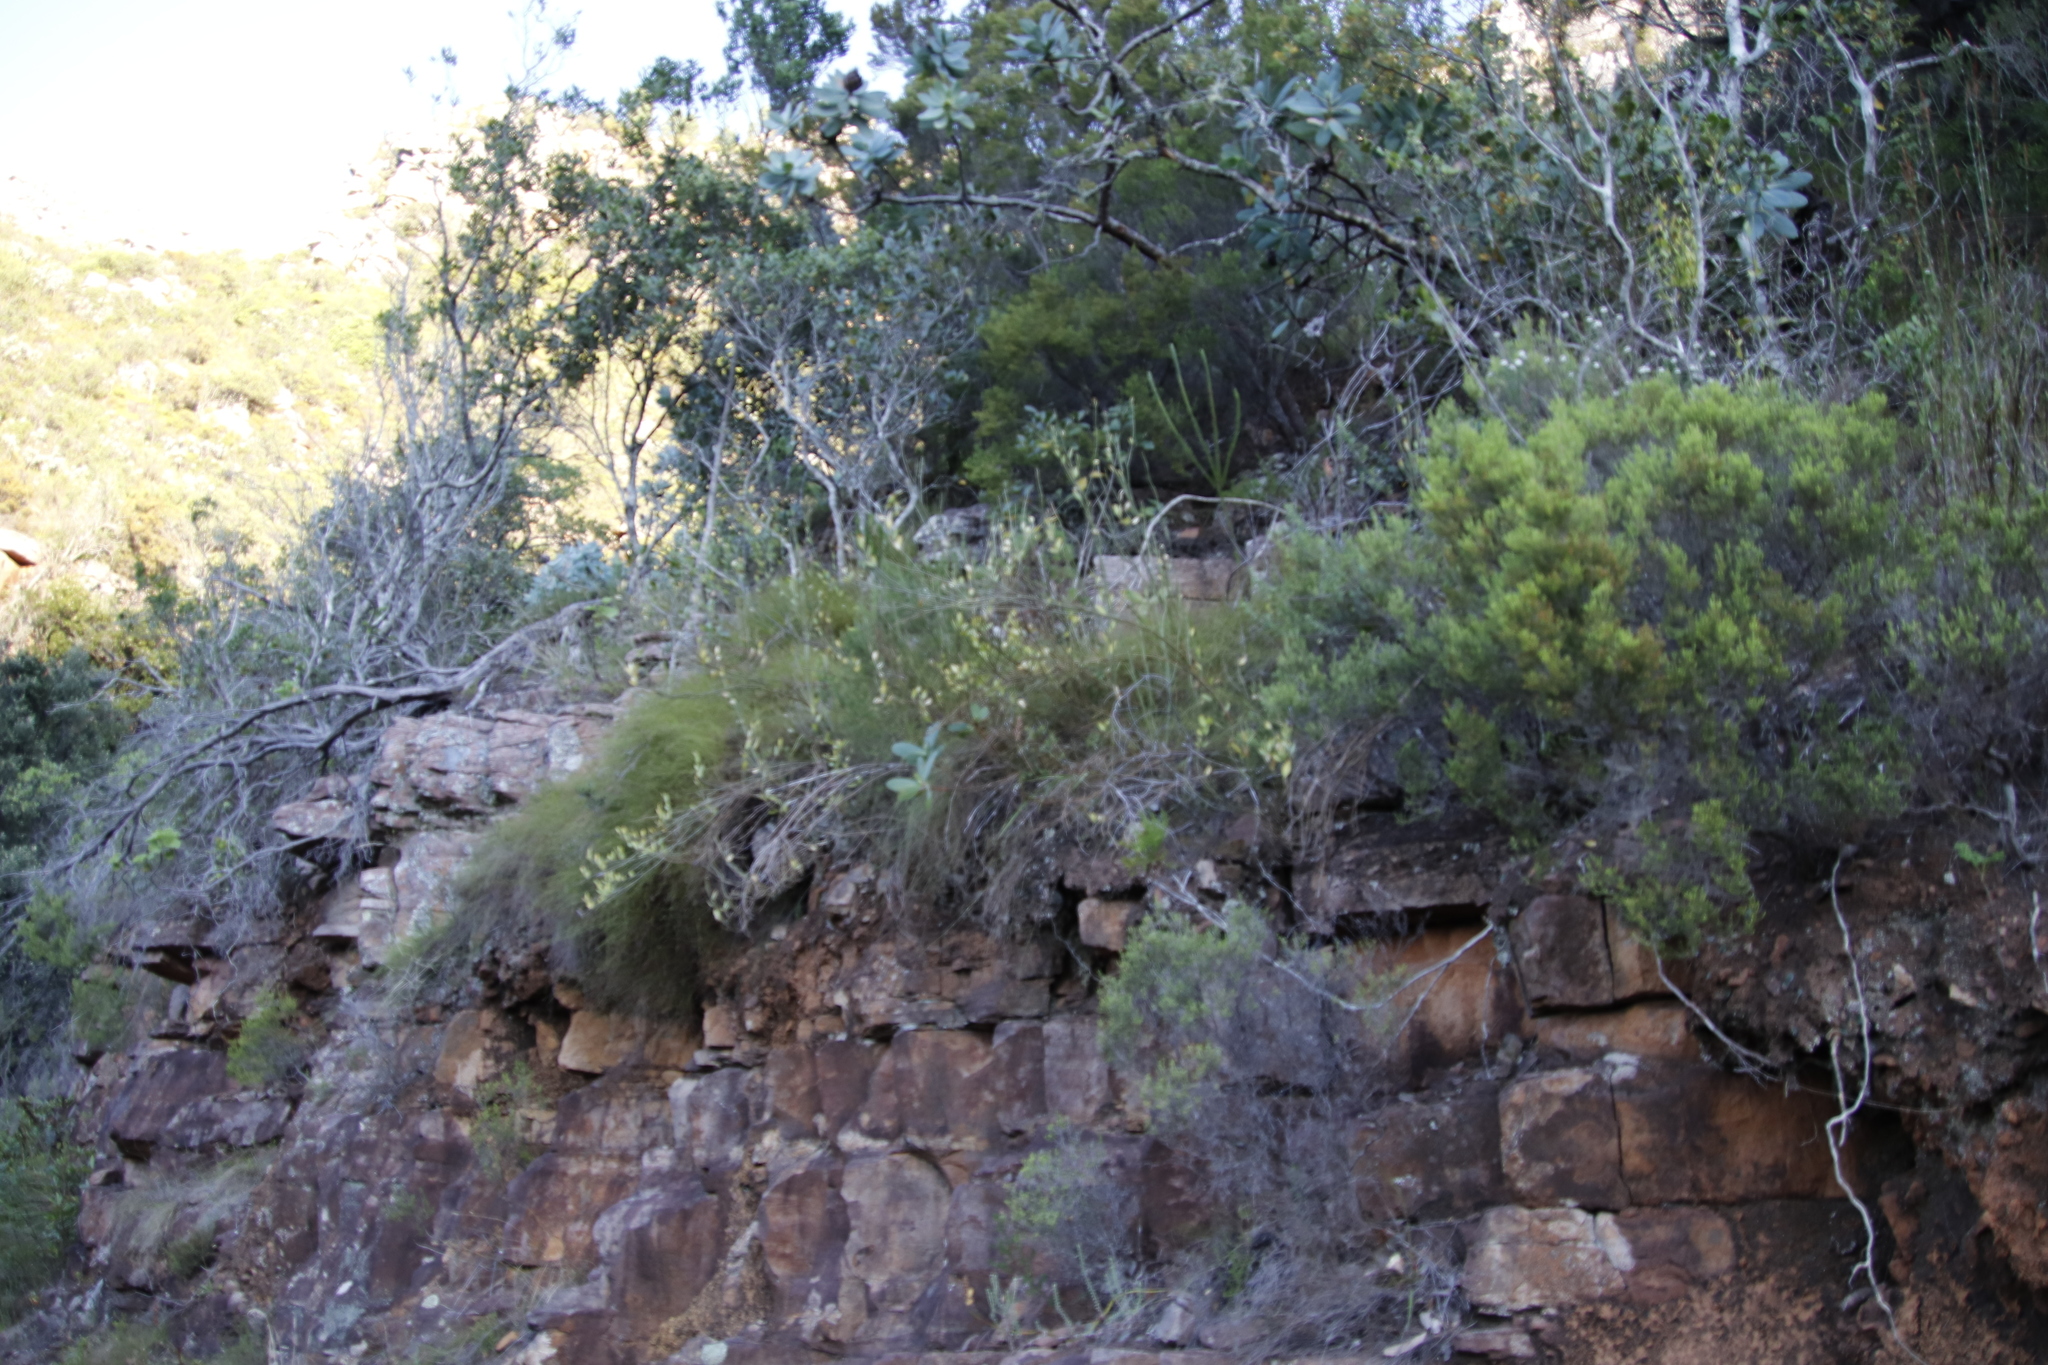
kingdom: Plantae
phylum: Tracheophyta
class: Magnoliopsida
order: Solanales
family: Montiniaceae
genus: Montinia
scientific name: Montinia caryophyllacea
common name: Wild clove-bush
